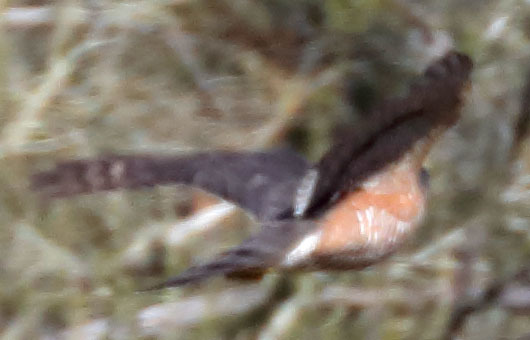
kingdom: Animalia
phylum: Chordata
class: Aves
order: Accipitriformes
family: Accipitridae
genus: Accipiter
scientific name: Accipiter striatus
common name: Sharp-shinned hawk
